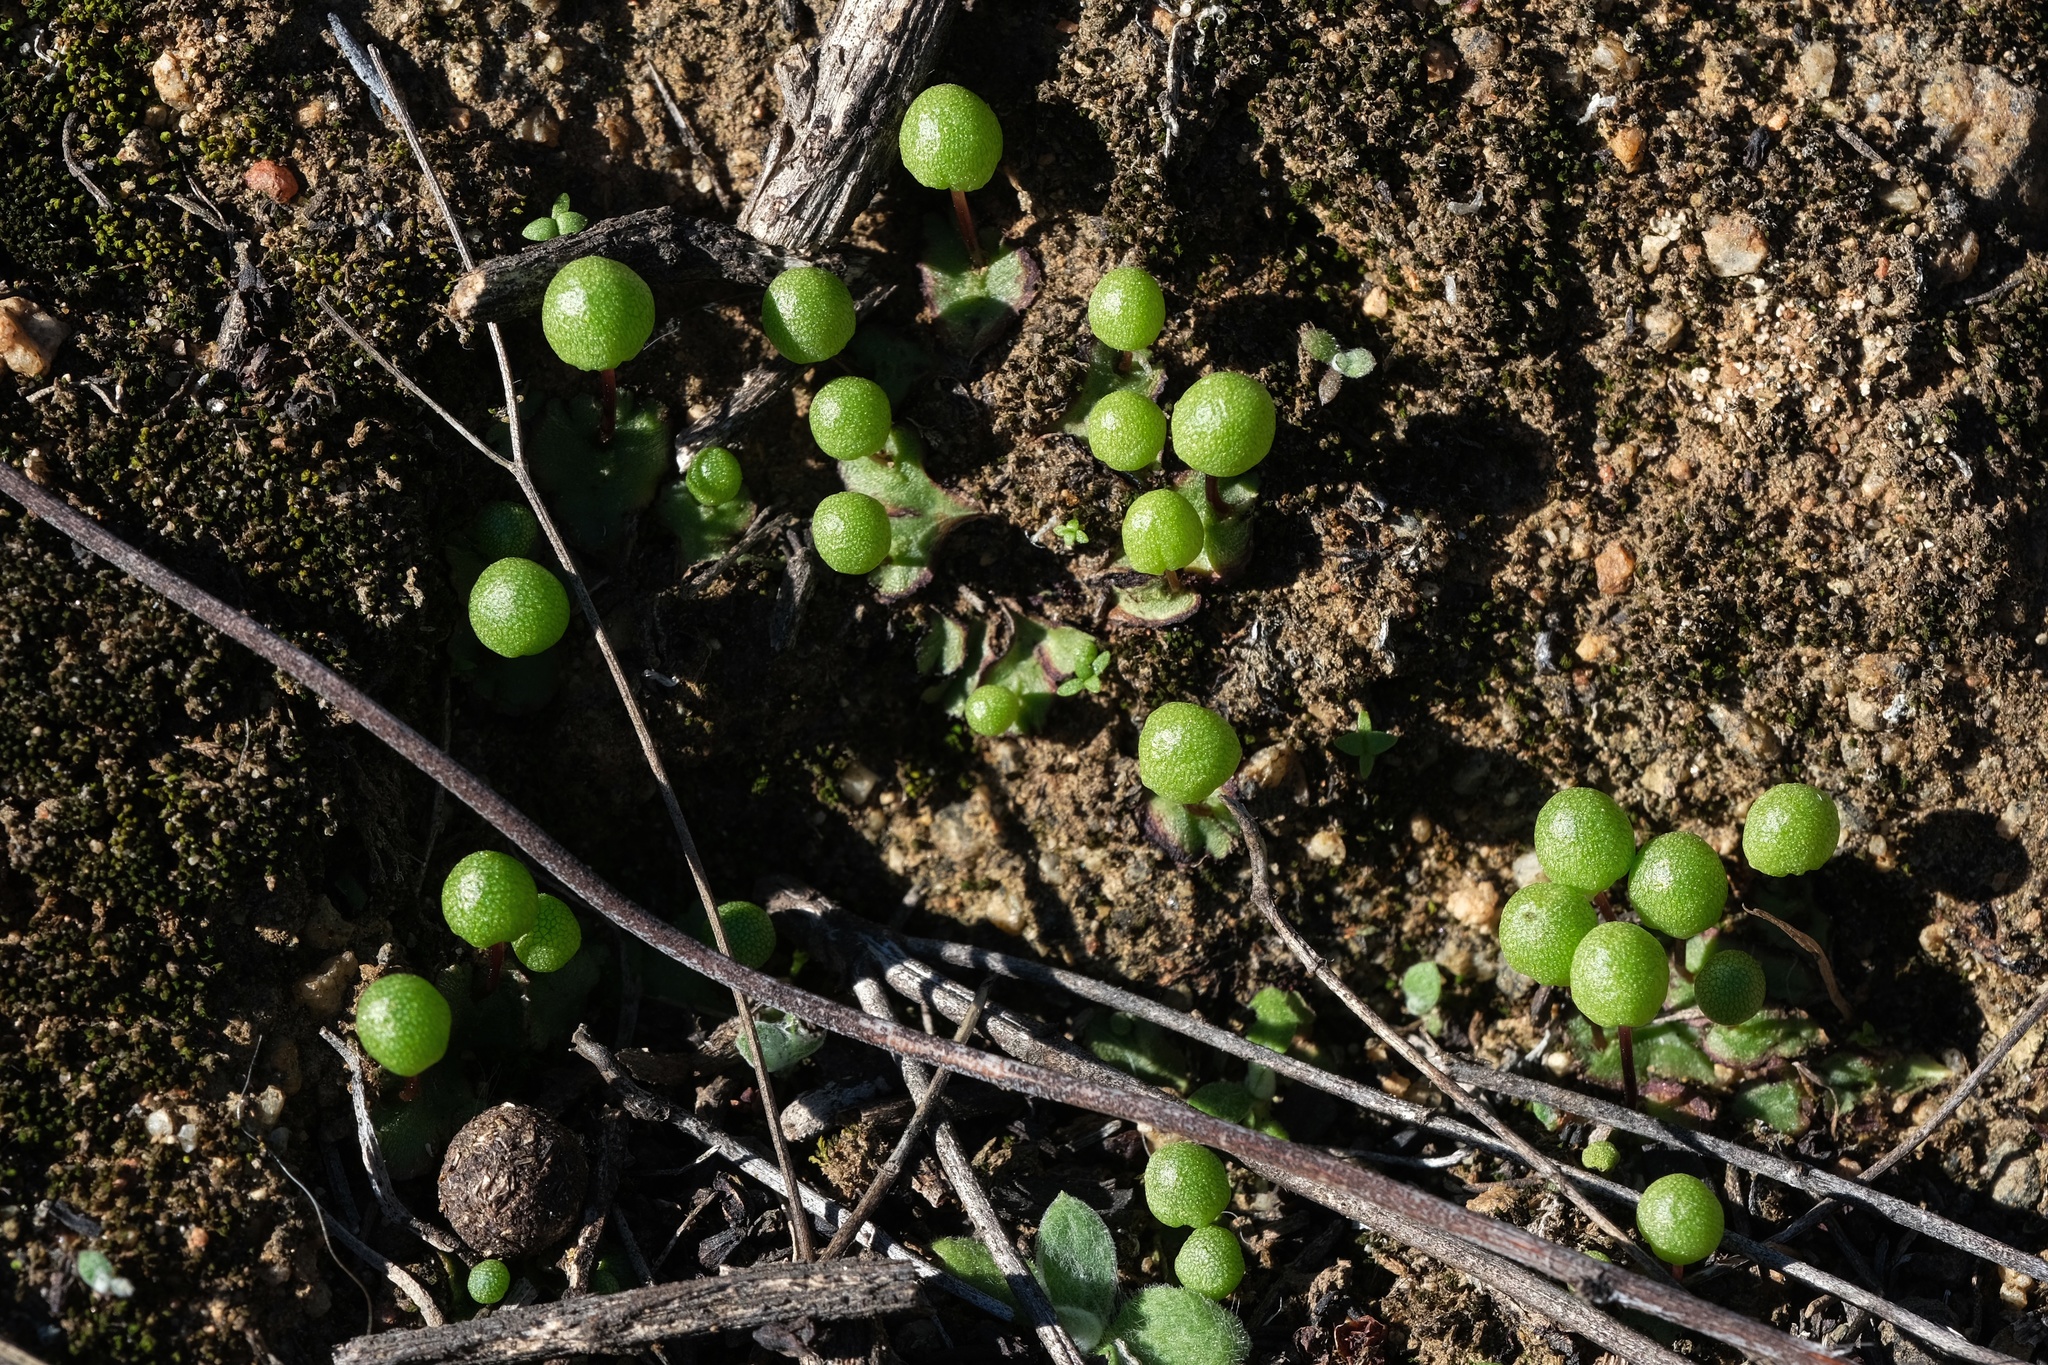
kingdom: Plantae
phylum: Marchantiophyta
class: Marchantiopsida
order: Marchantiales
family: Aytoniaceae
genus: Asterella
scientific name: Asterella palmeri
